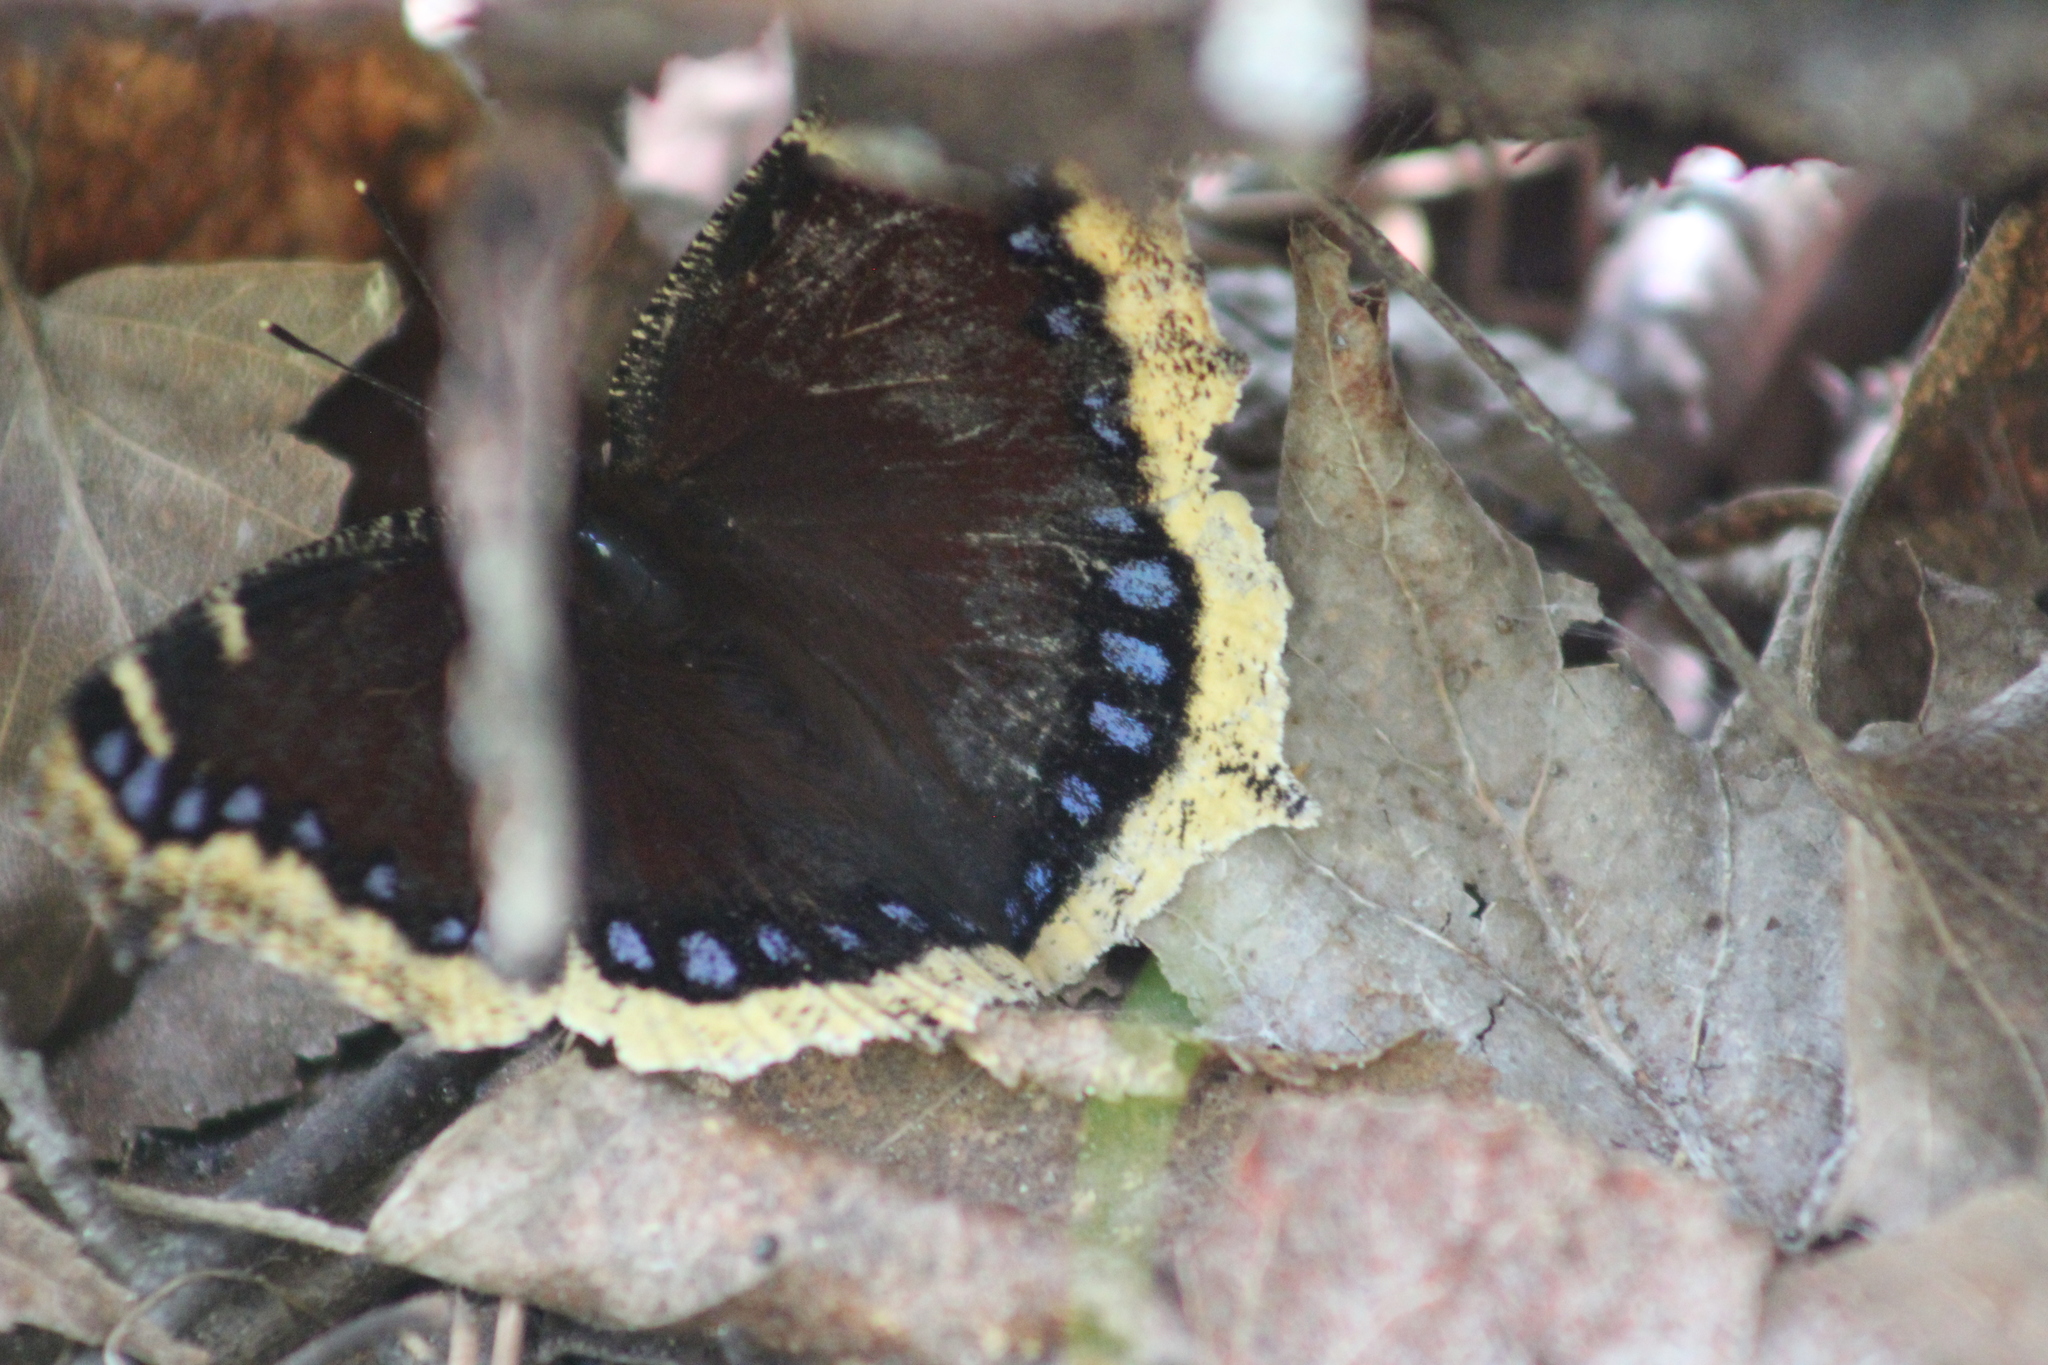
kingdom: Animalia
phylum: Arthropoda
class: Insecta
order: Lepidoptera
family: Nymphalidae
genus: Nymphalis
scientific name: Nymphalis antiopa
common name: Camberwell beauty
